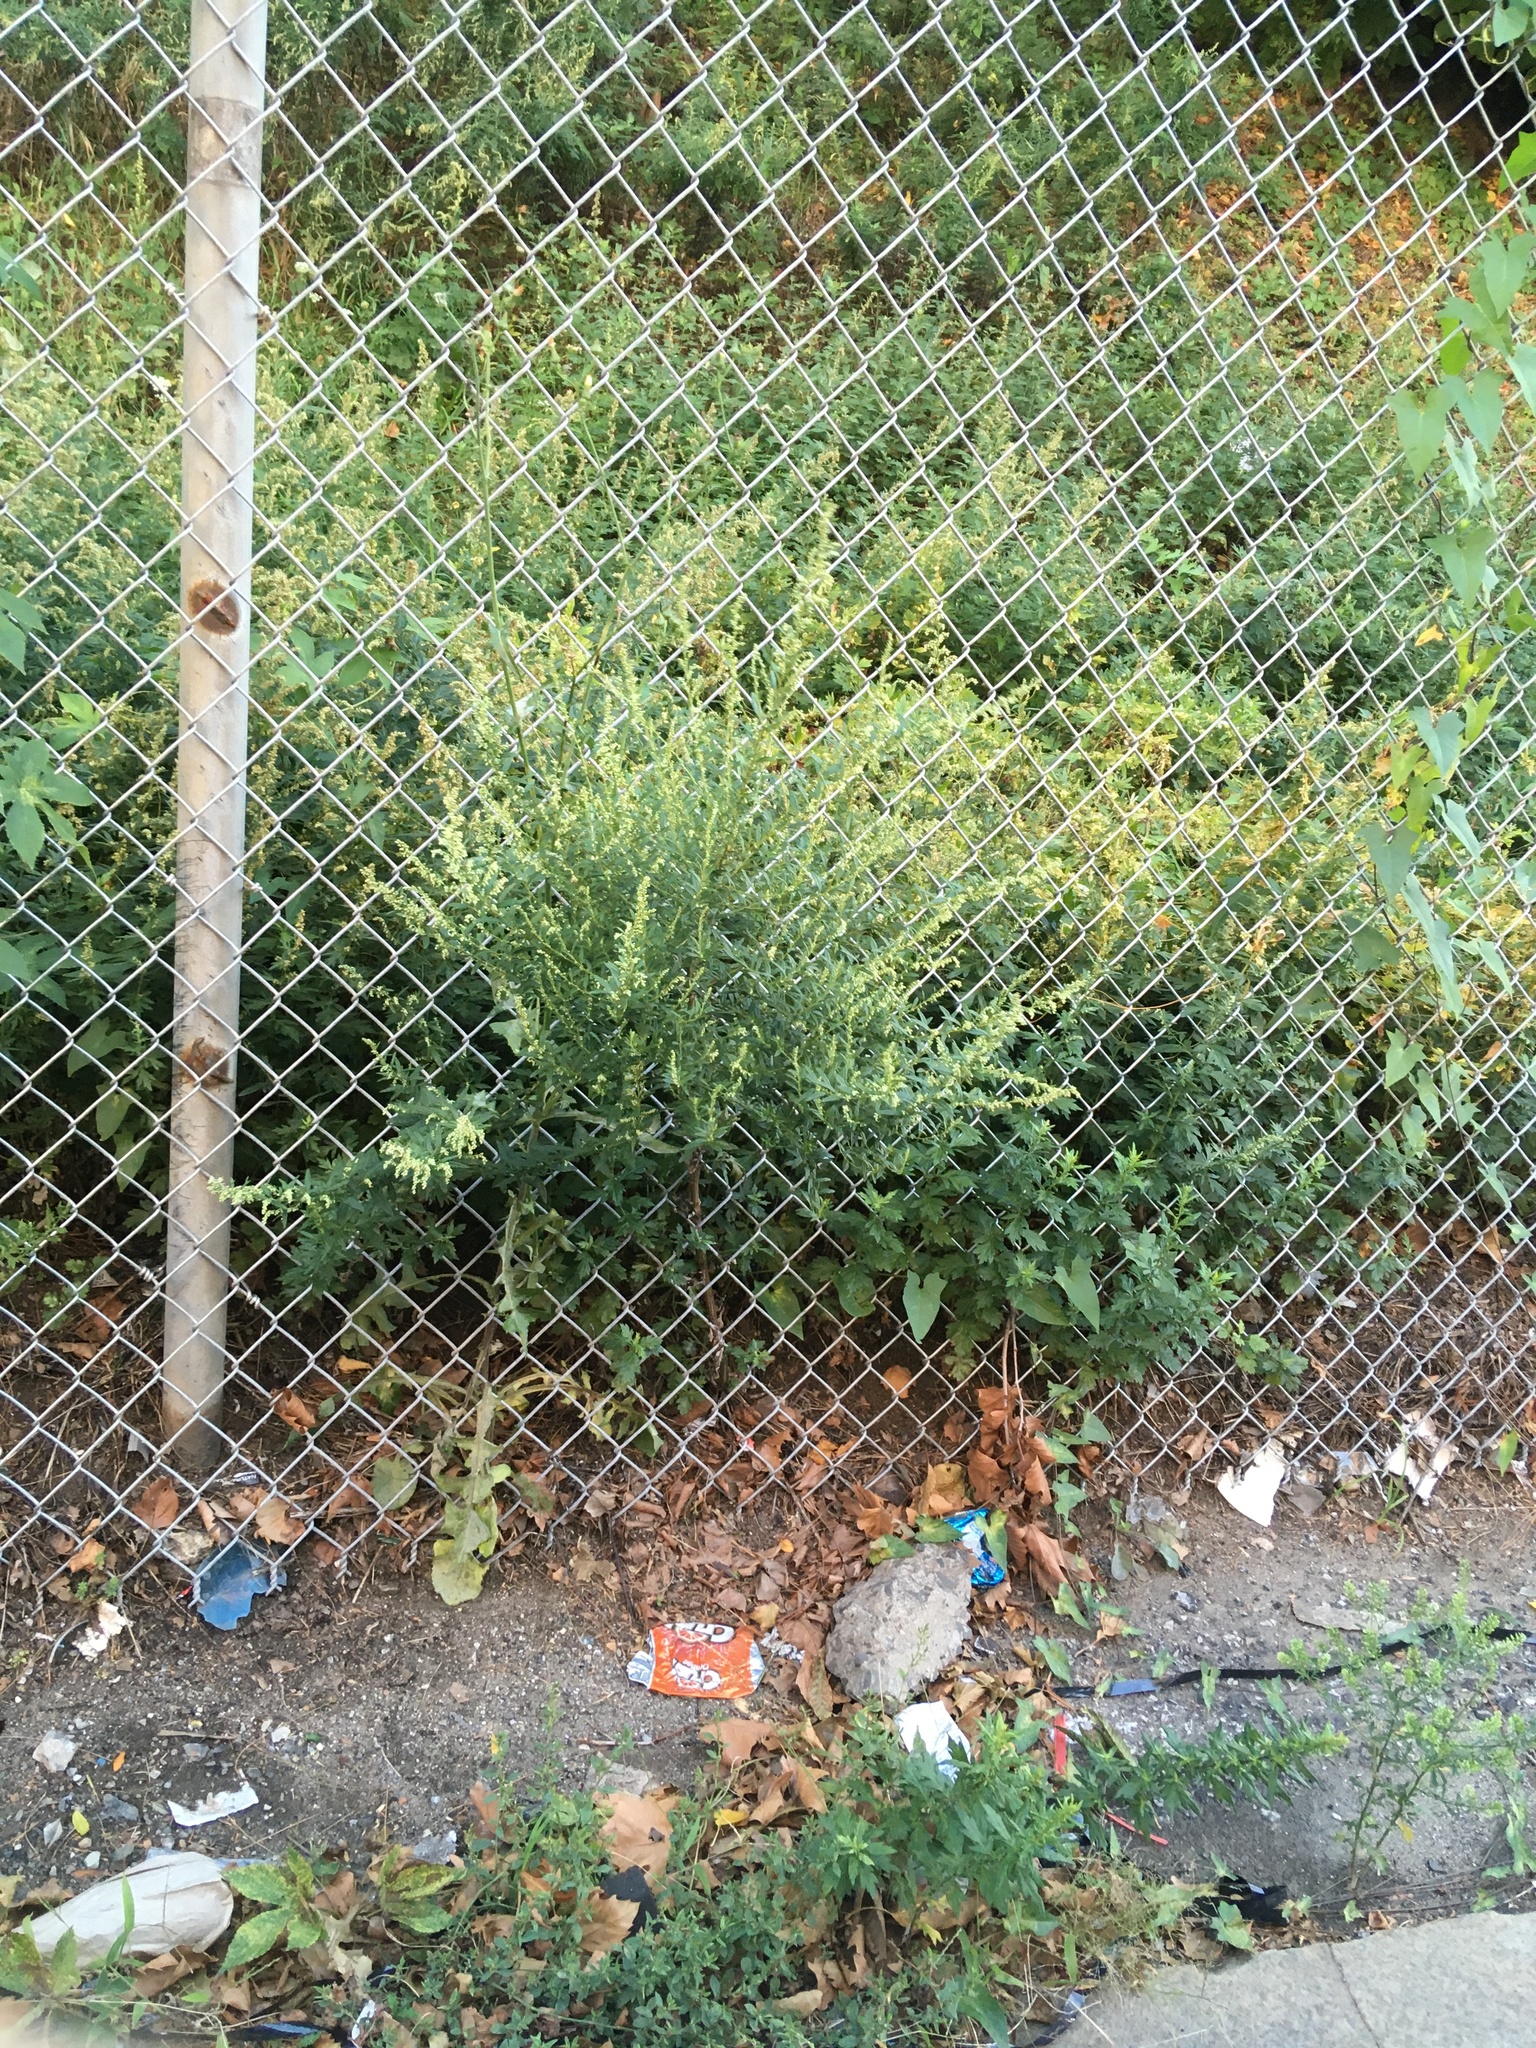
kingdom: Plantae
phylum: Tracheophyta
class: Magnoliopsida
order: Asterales
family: Asteraceae
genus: Artemisia
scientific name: Artemisia vulgaris
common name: Mugwort
